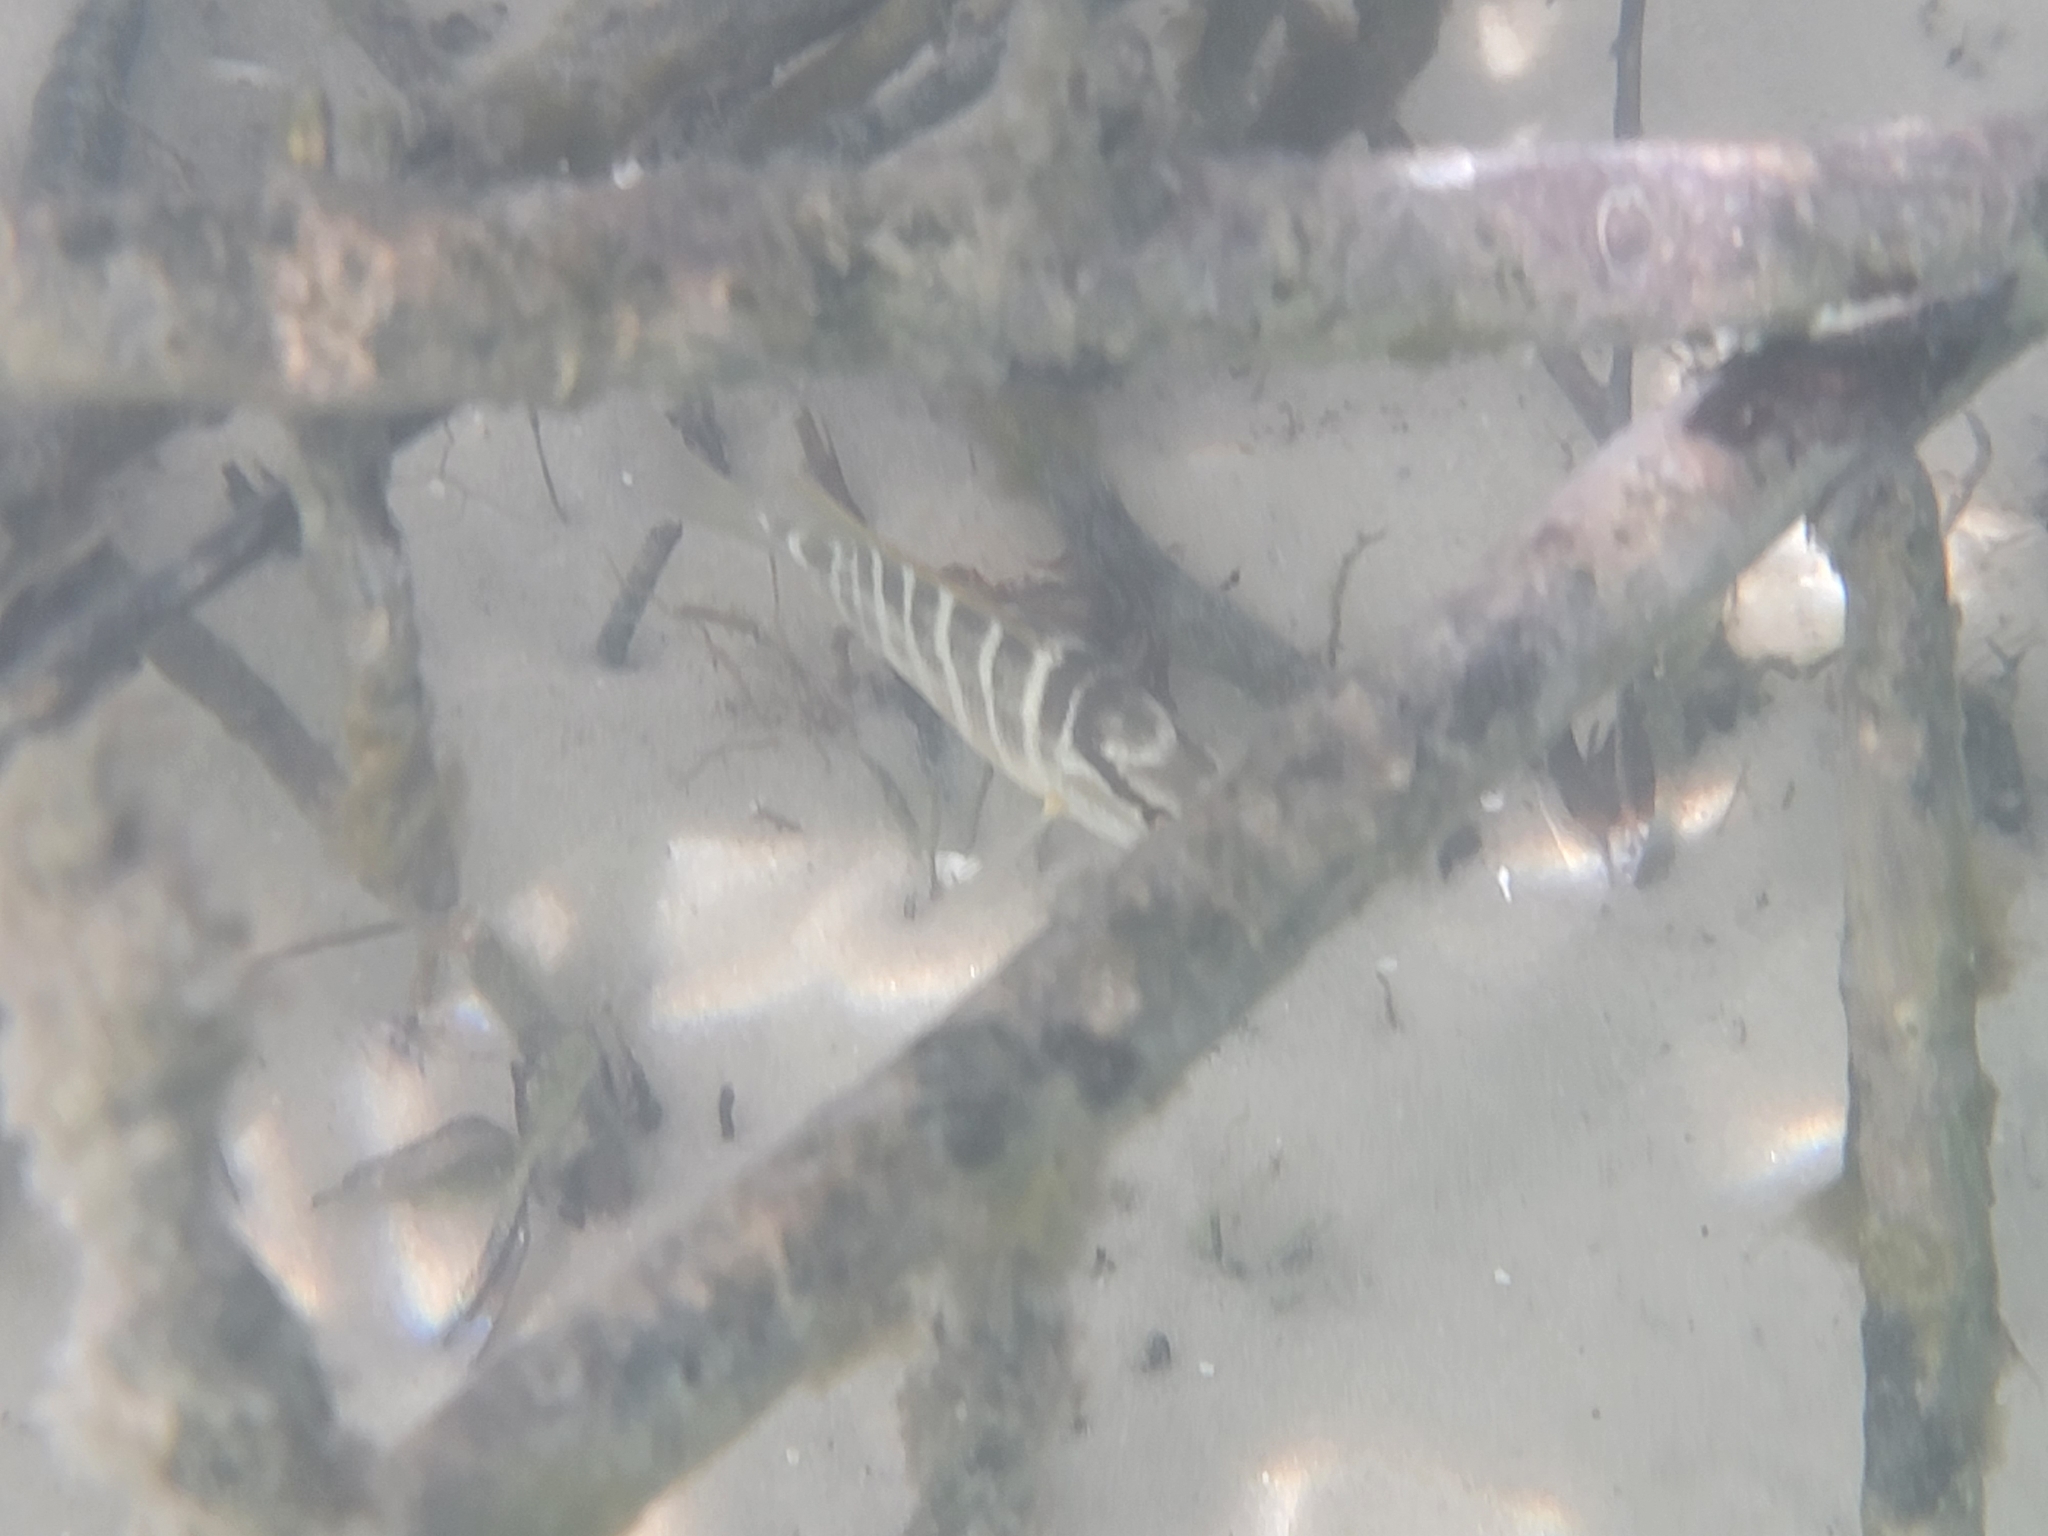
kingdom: Animalia
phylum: Chordata
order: Perciformes
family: Lutjanidae
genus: Lutjanus
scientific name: Lutjanus apodus
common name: Schoolmaster
